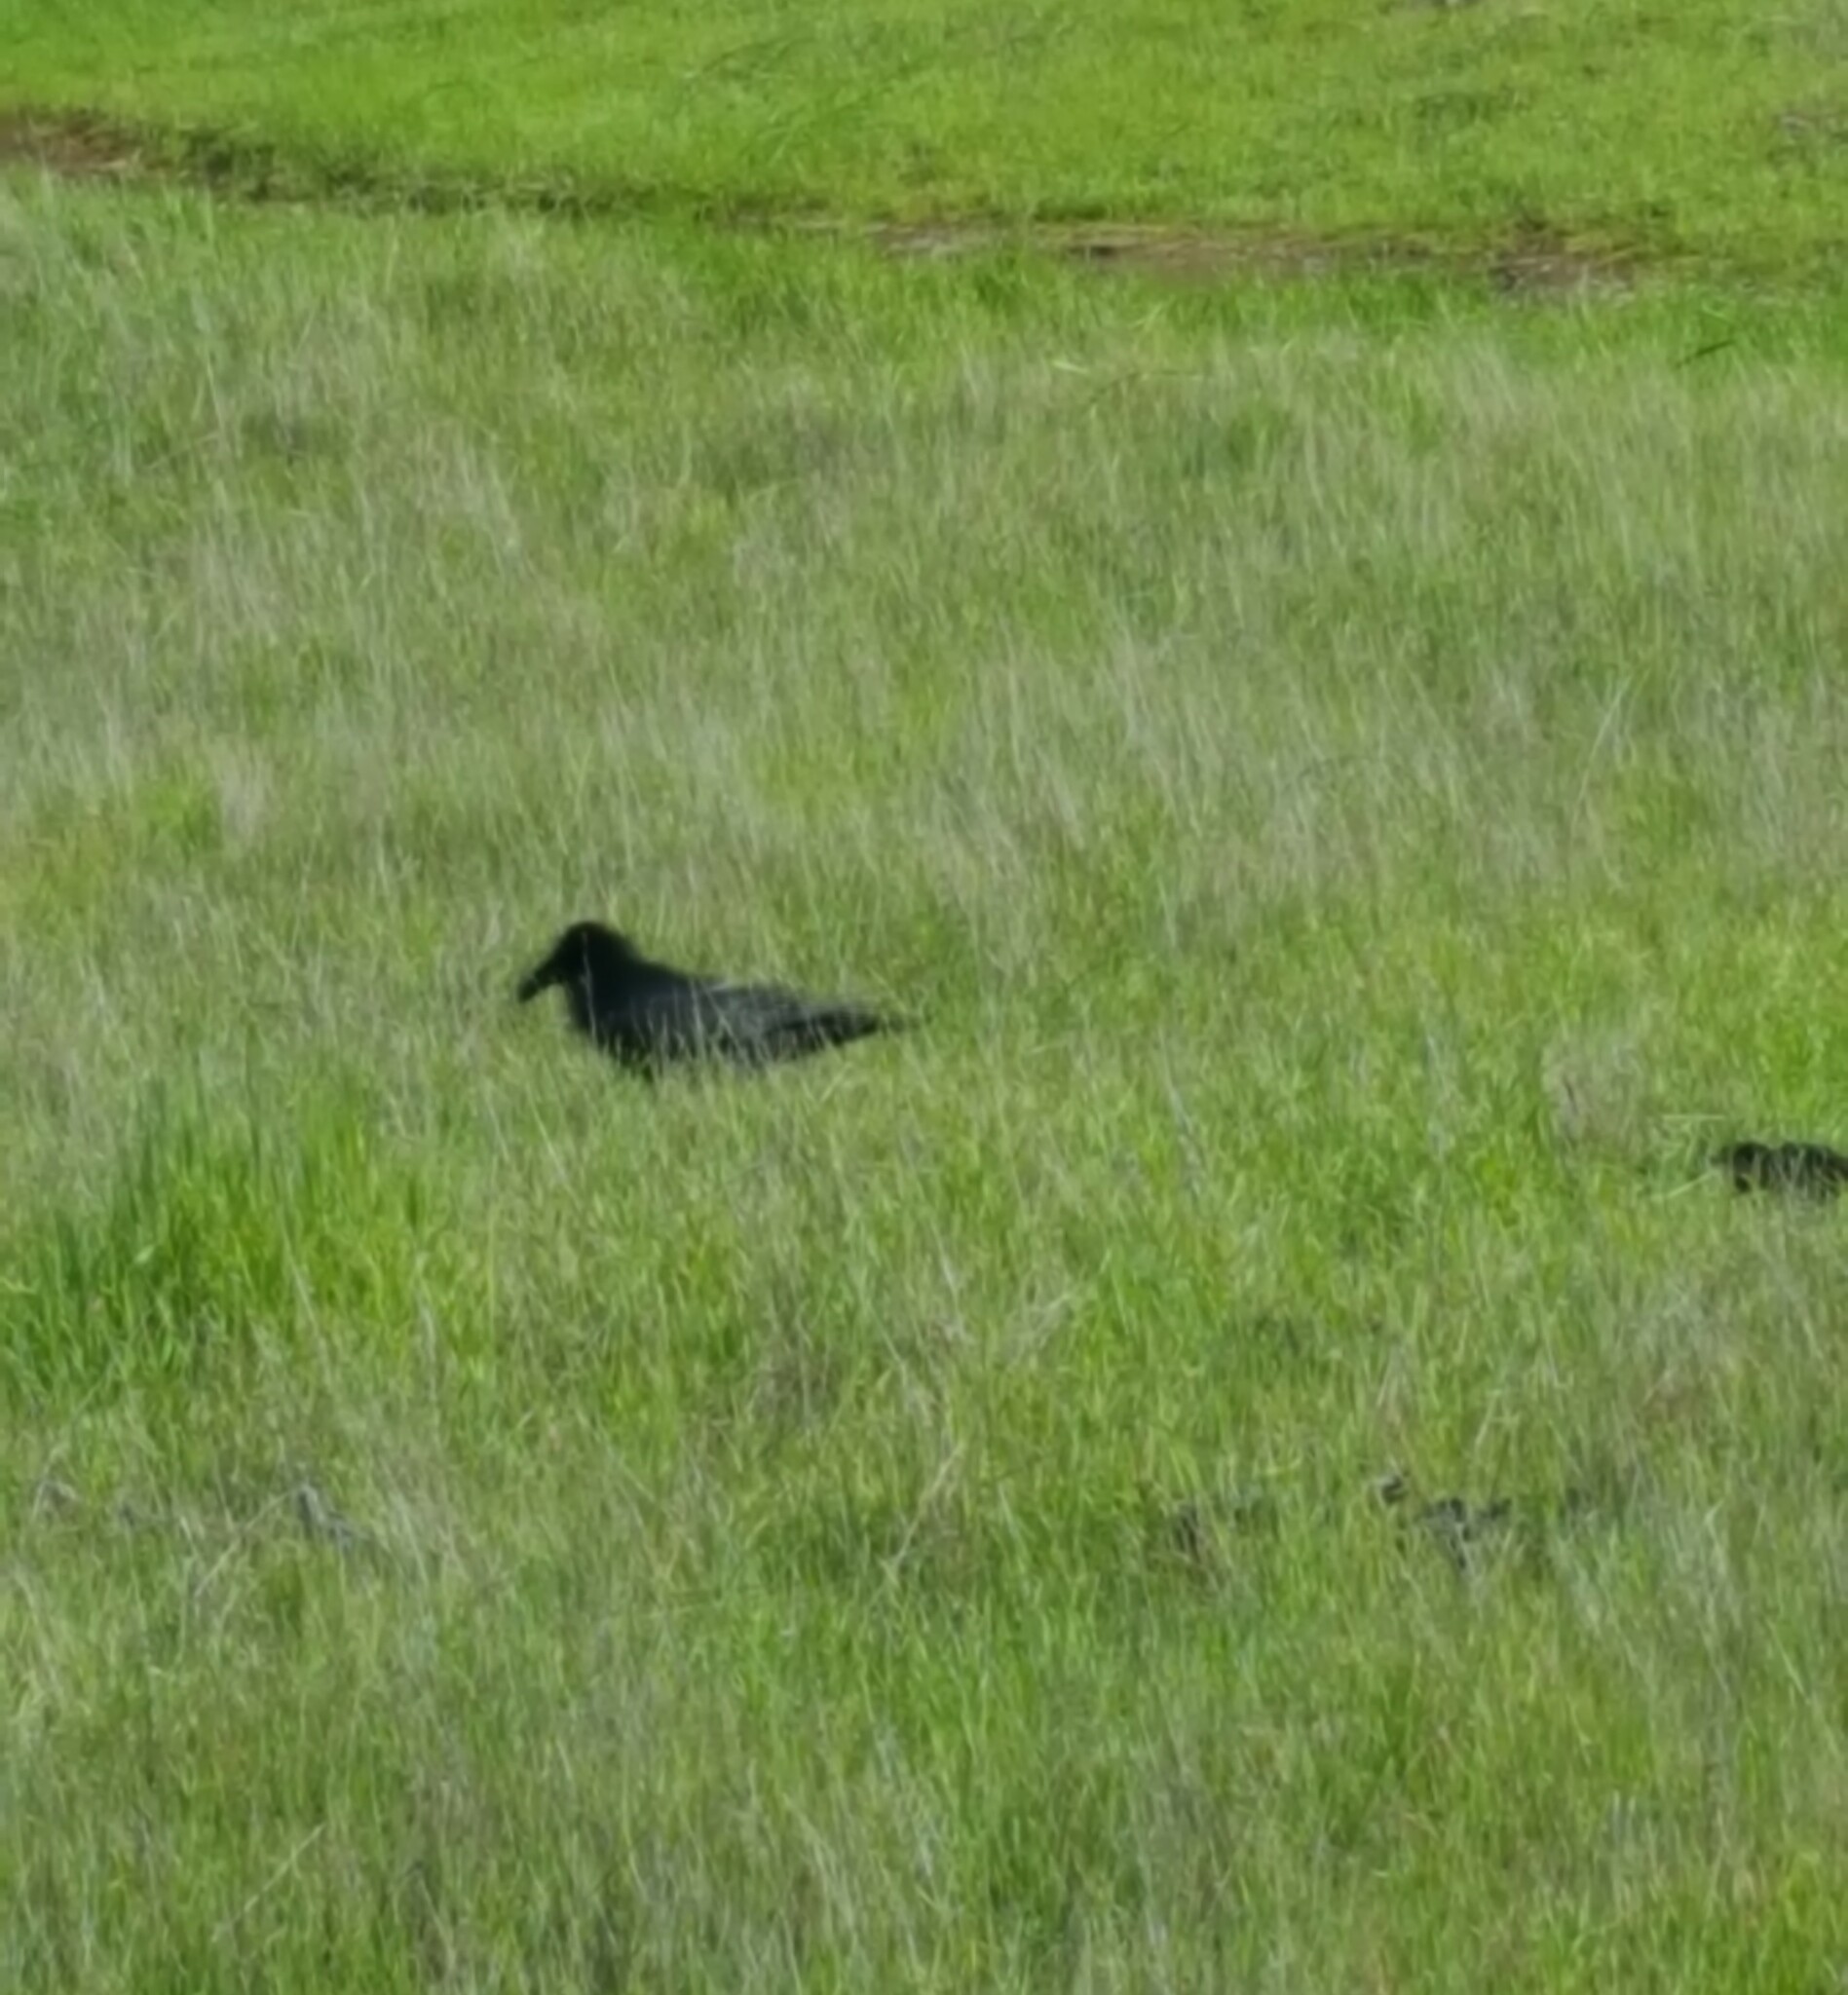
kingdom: Animalia
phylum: Chordata
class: Aves
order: Passeriformes
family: Corvidae
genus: Corvus
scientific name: Corvus corax
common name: Common raven
